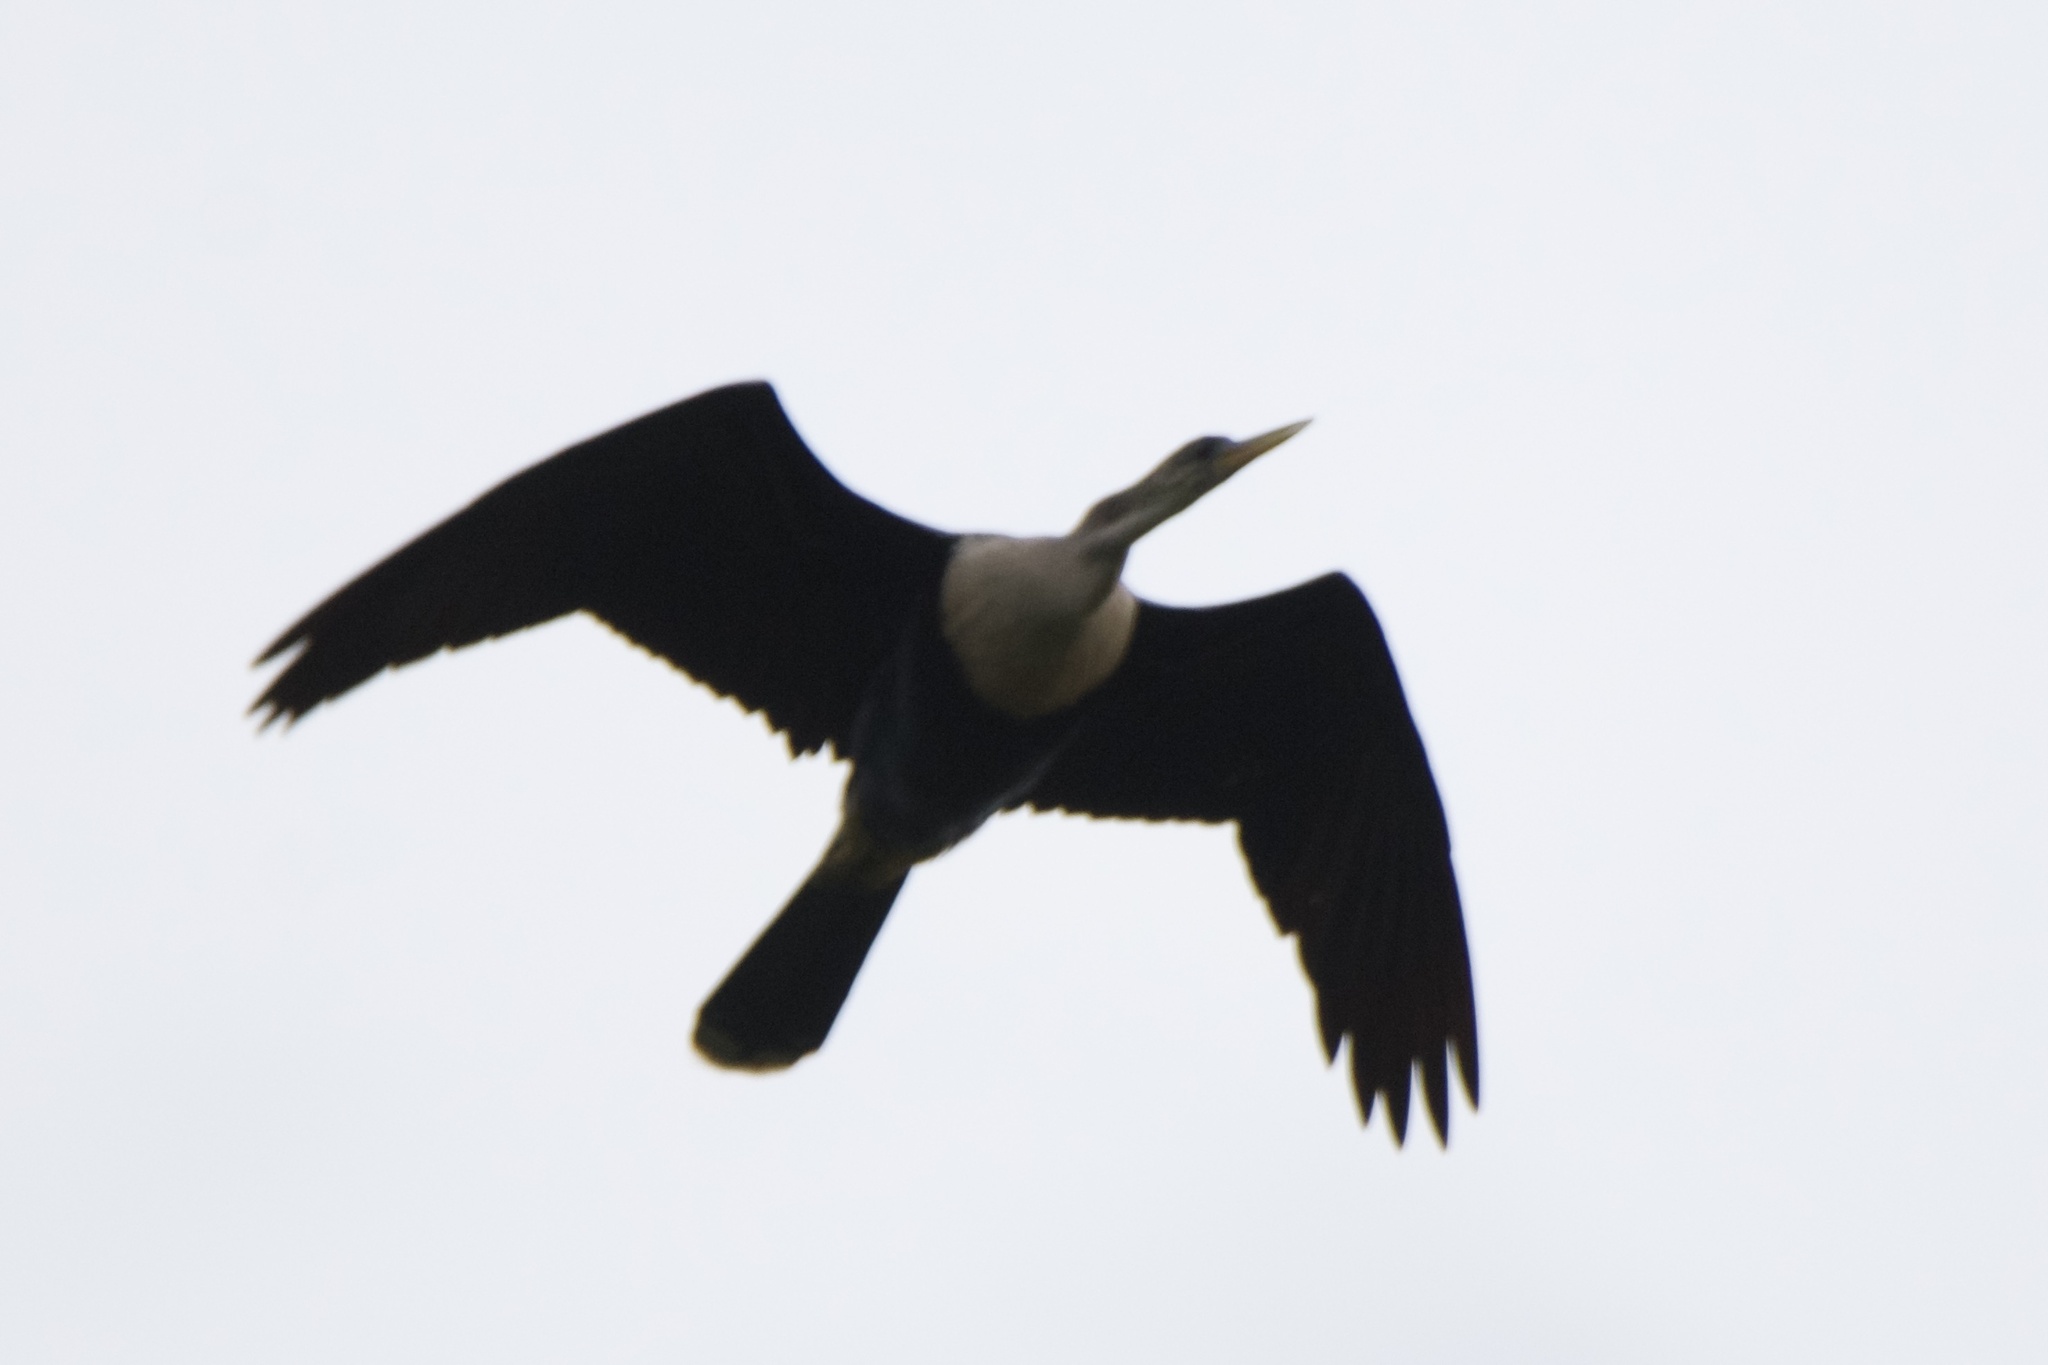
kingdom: Animalia
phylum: Chordata
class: Aves
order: Suliformes
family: Anhingidae
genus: Anhinga
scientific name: Anhinga anhinga
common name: Anhinga
